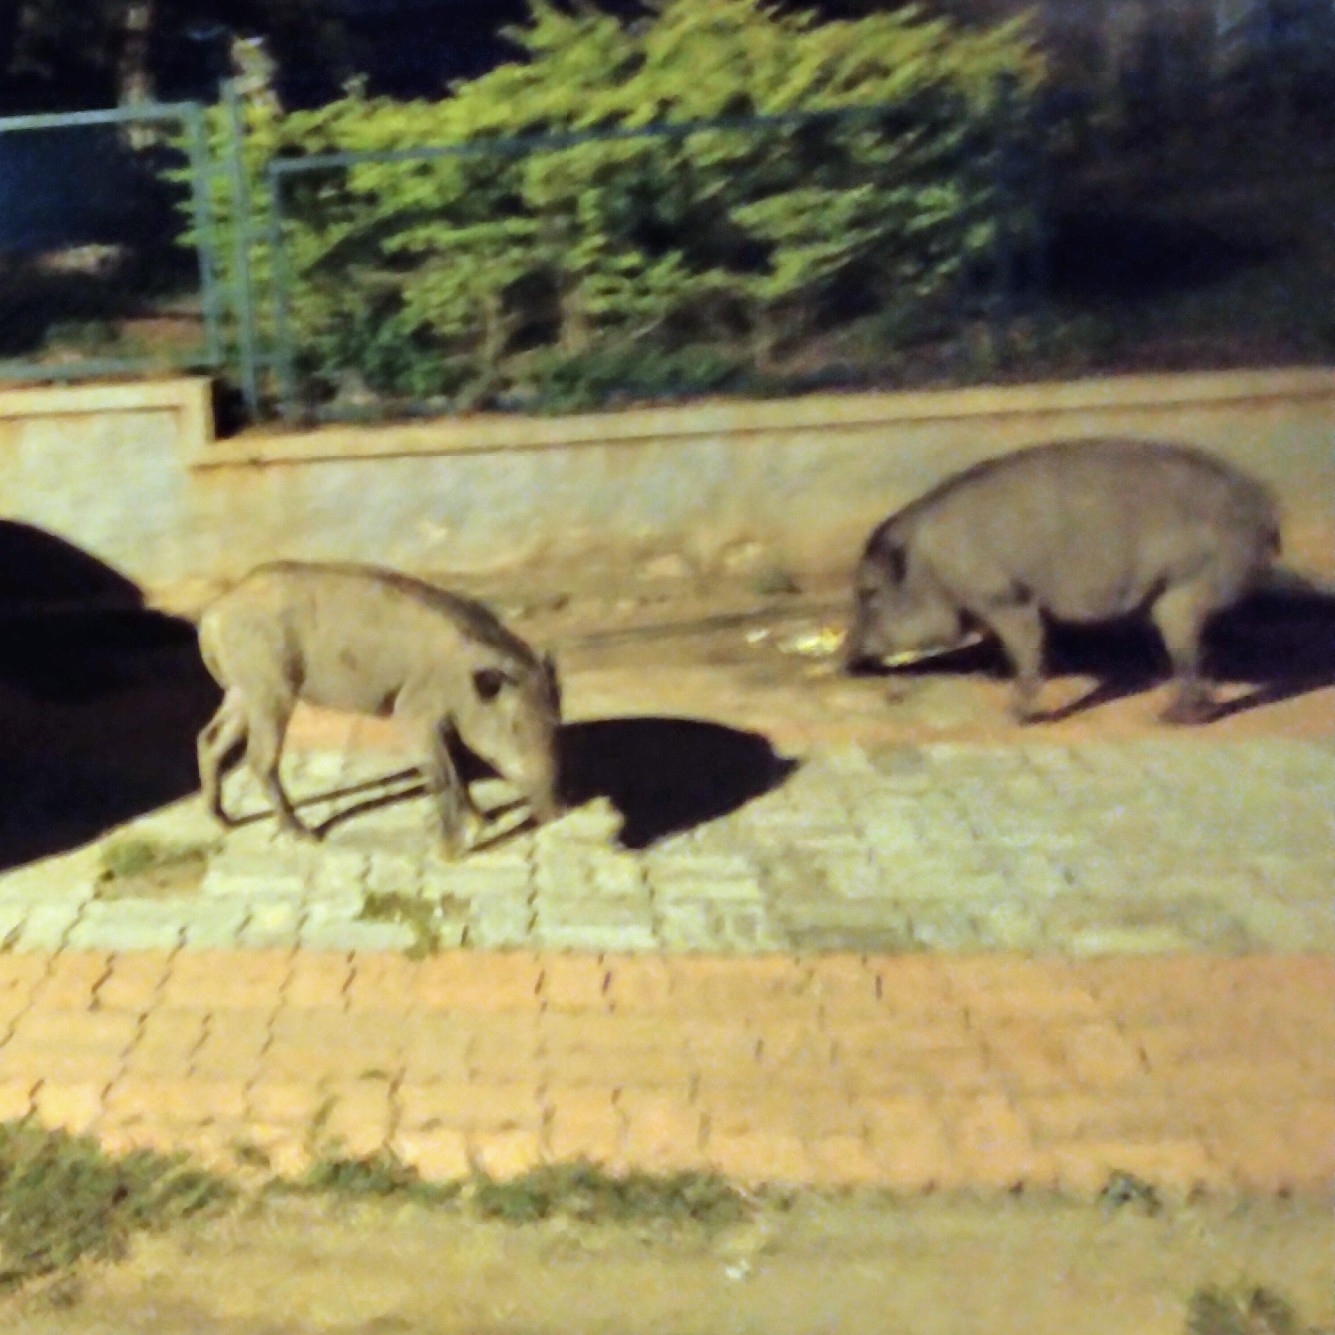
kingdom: Animalia
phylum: Chordata
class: Mammalia
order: Artiodactyla
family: Suidae
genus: Sus
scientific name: Sus scrofa
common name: Wild boar
